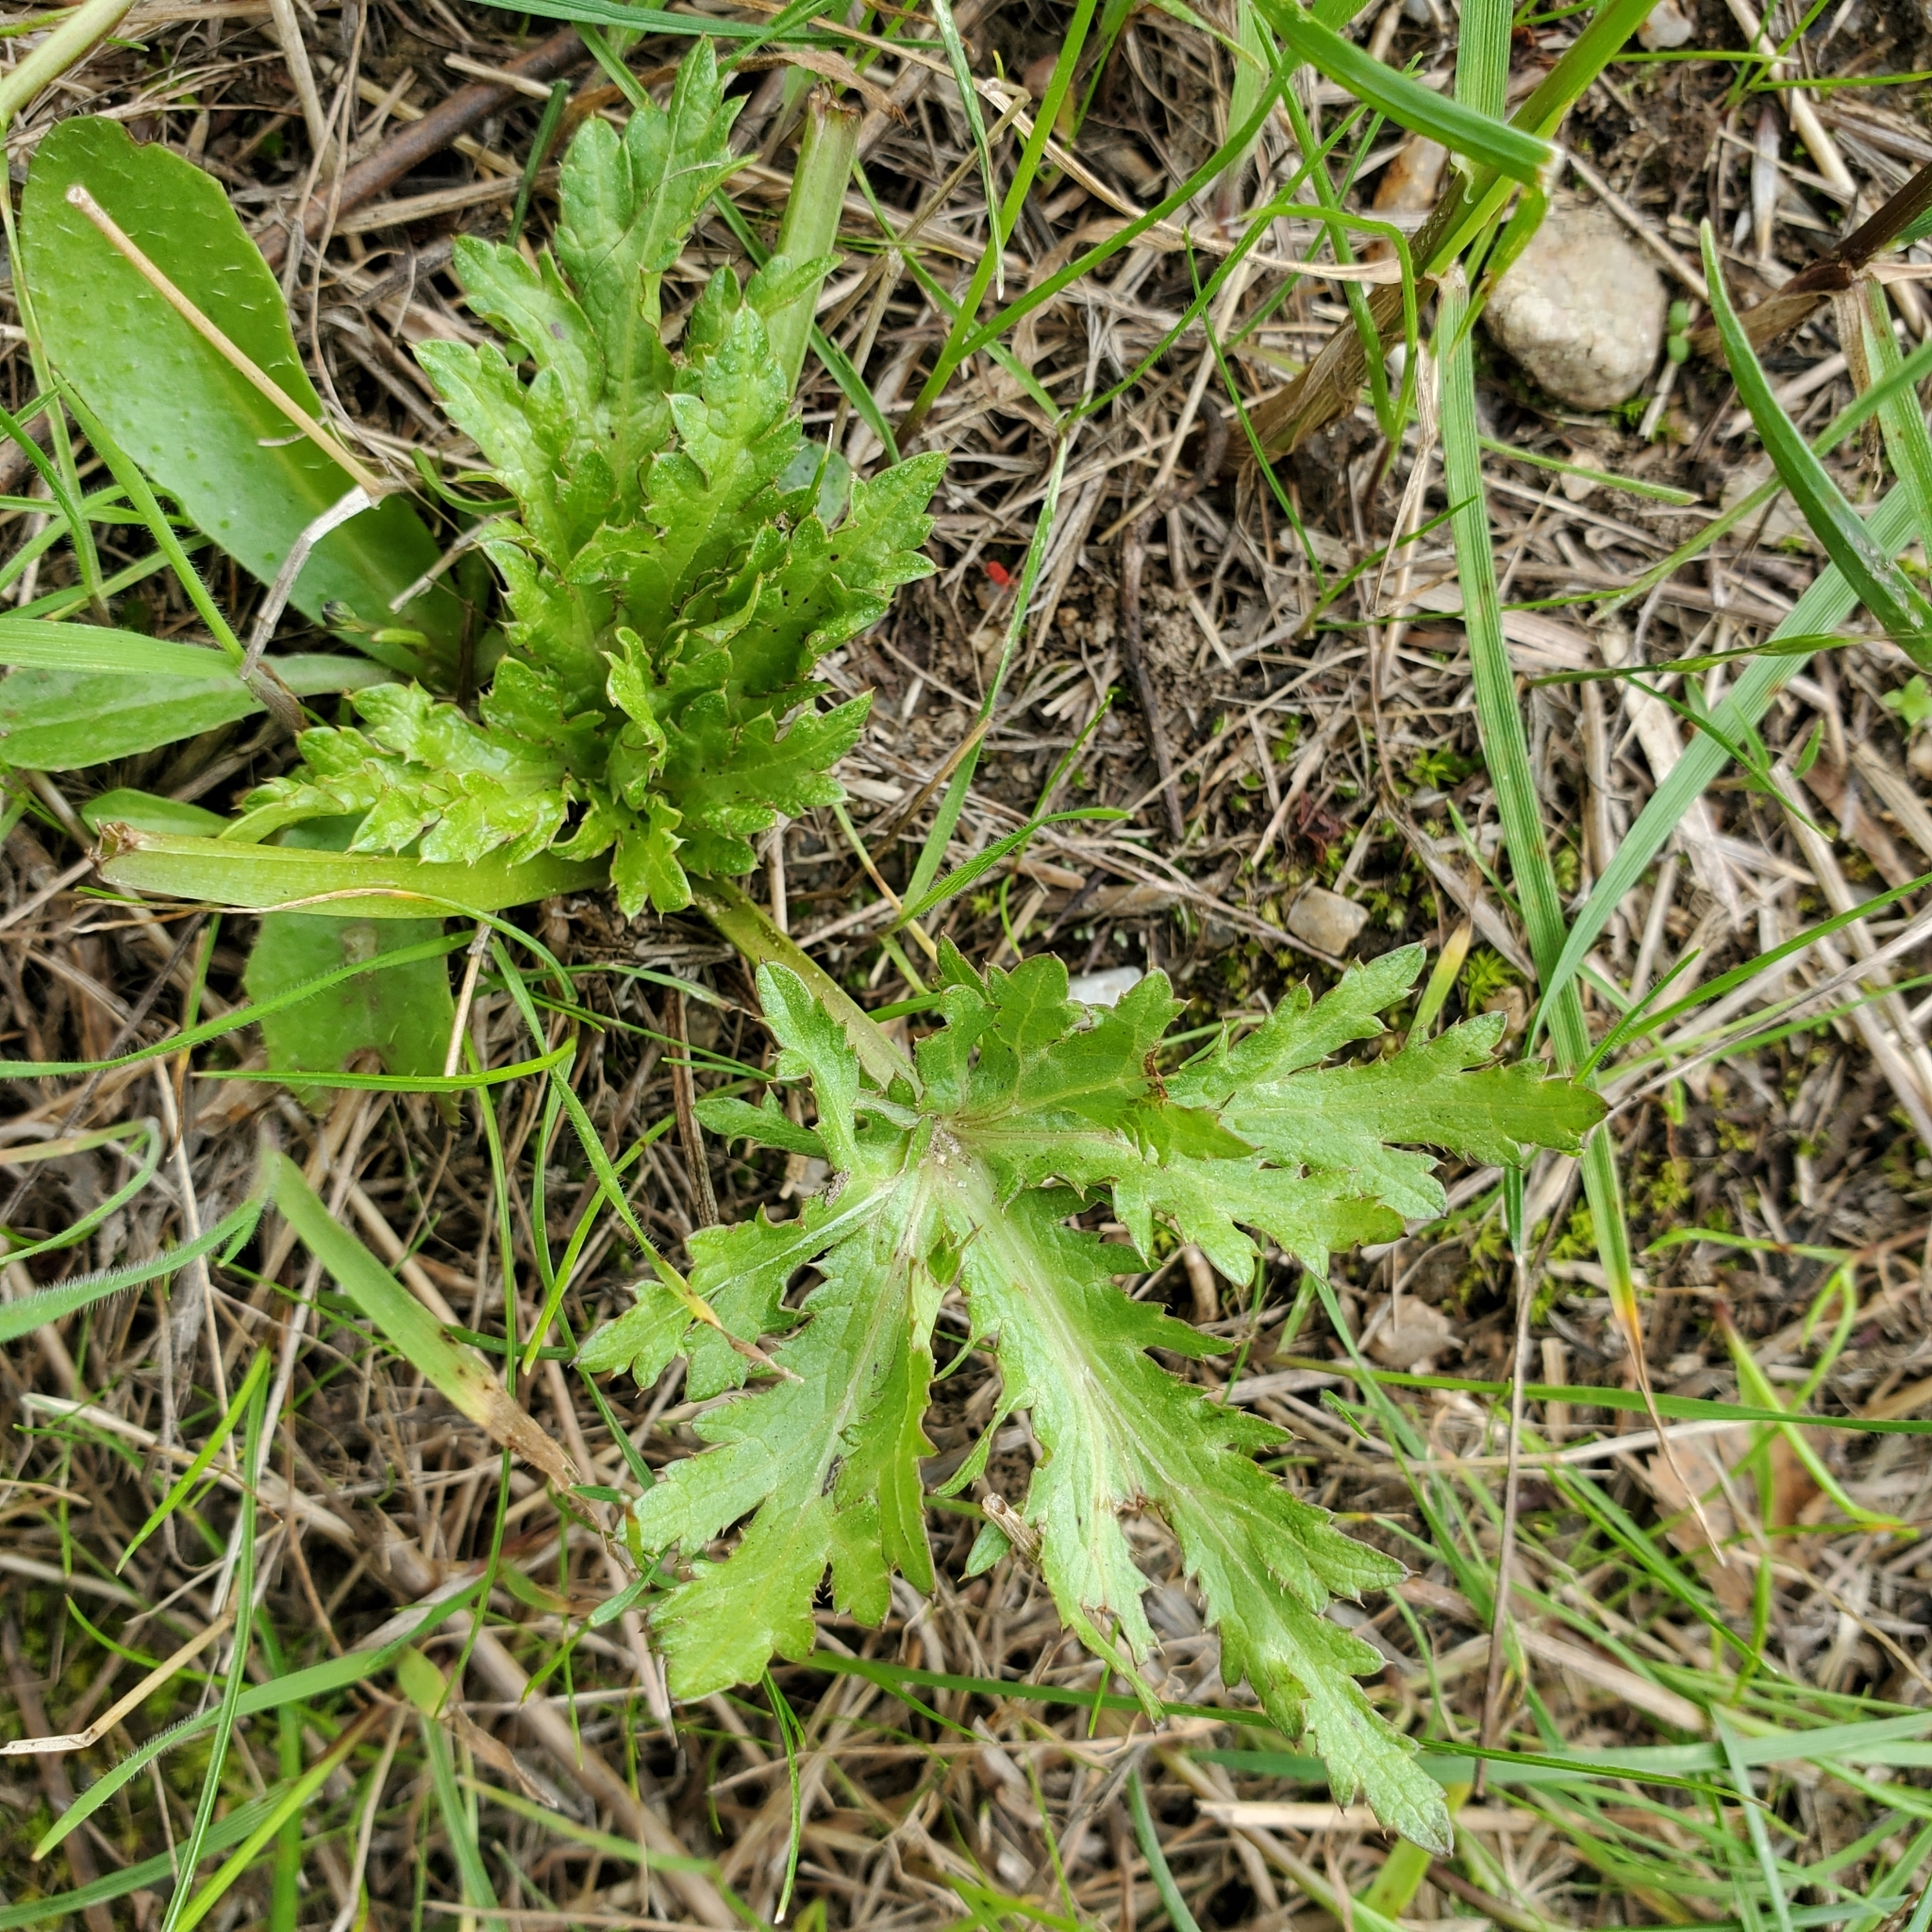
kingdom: Plantae
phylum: Tracheophyta
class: Magnoliopsida
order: Apiales
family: Apiaceae
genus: Sanicula
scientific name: Sanicula arguta
